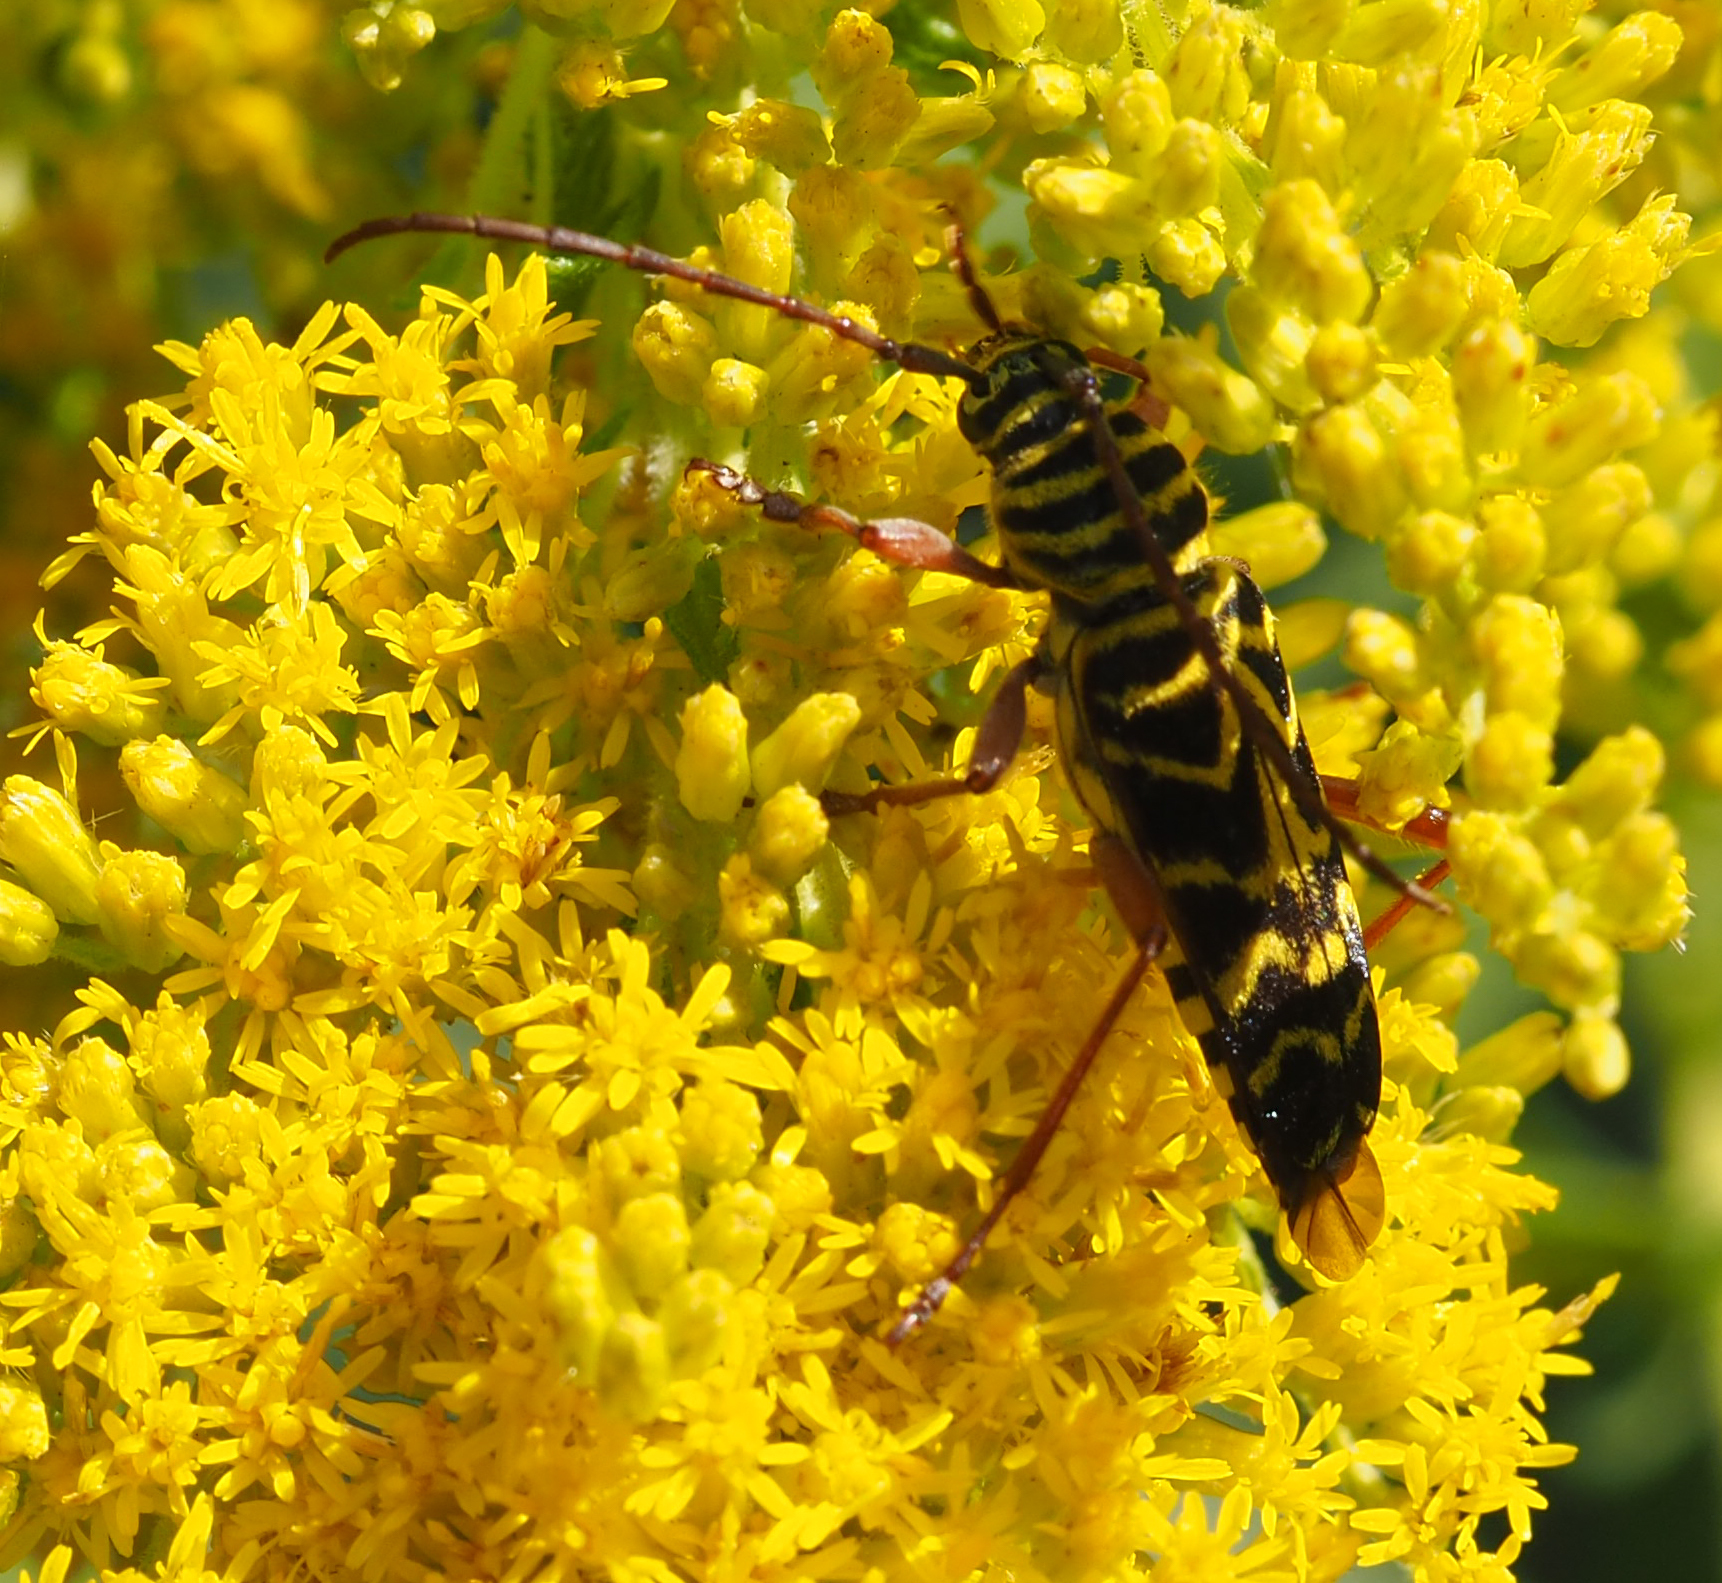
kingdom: Animalia
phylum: Arthropoda
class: Insecta
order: Coleoptera
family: Cerambycidae
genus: Megacyllene
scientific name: Megacyllene robiniae
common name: Locust borer
